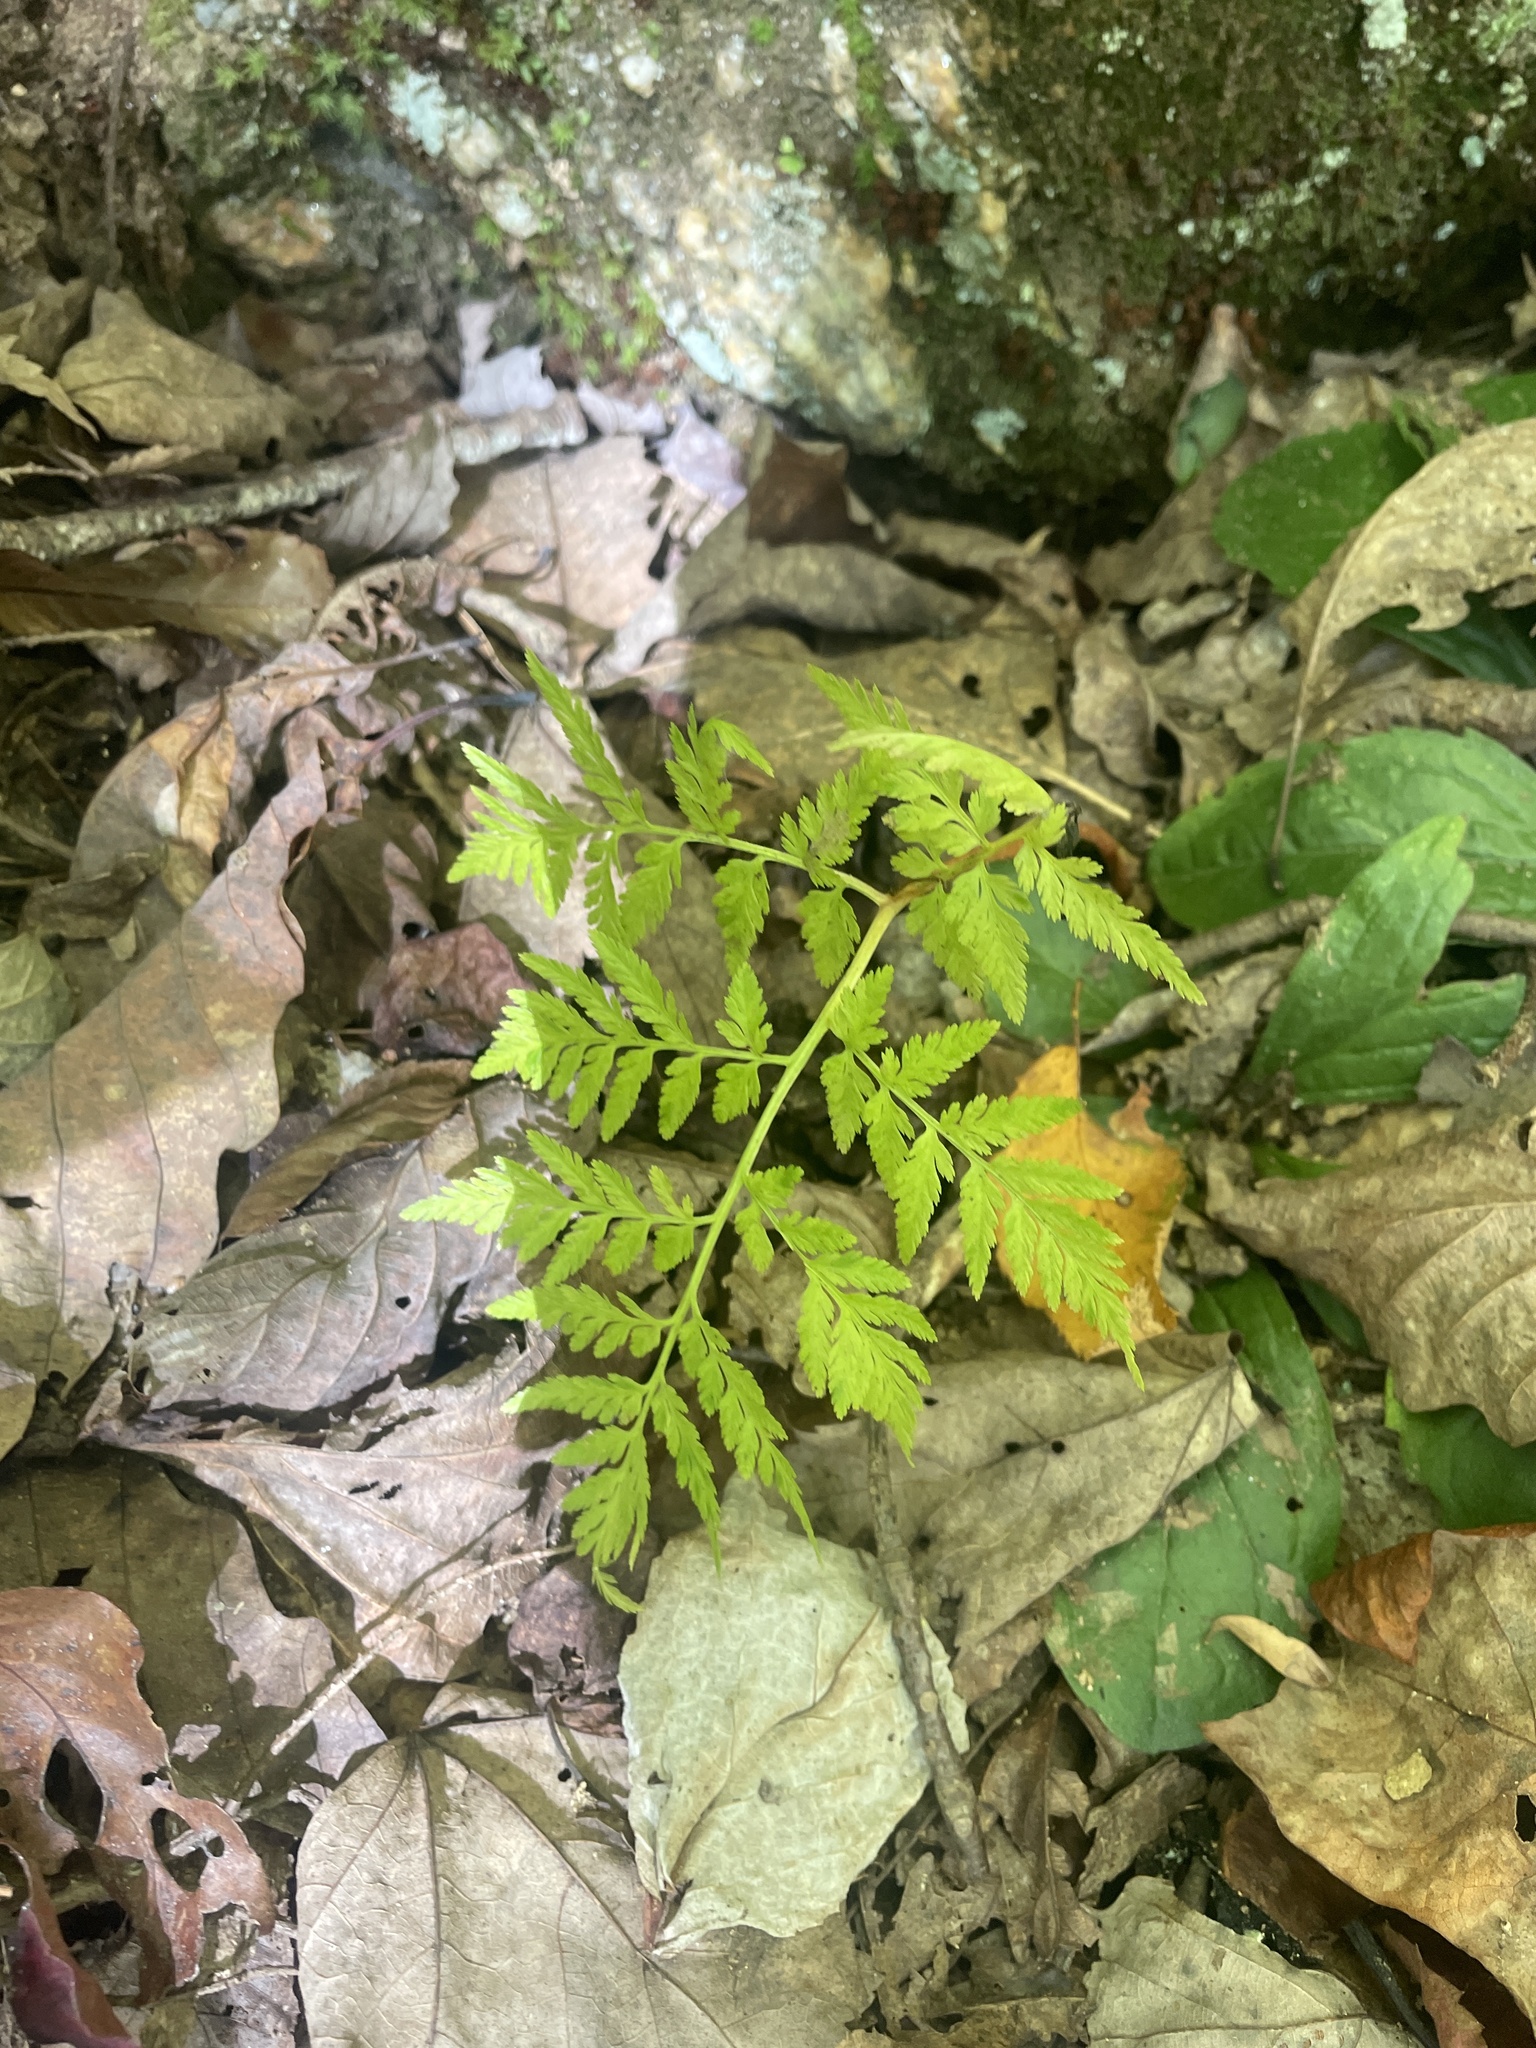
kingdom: Plantae
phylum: Tracheophyta
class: Polypodiopsida
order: Ophioglossales
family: Ophioglossaceae
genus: Botrypus
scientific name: Botrypus virginianus
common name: Common grapefern
